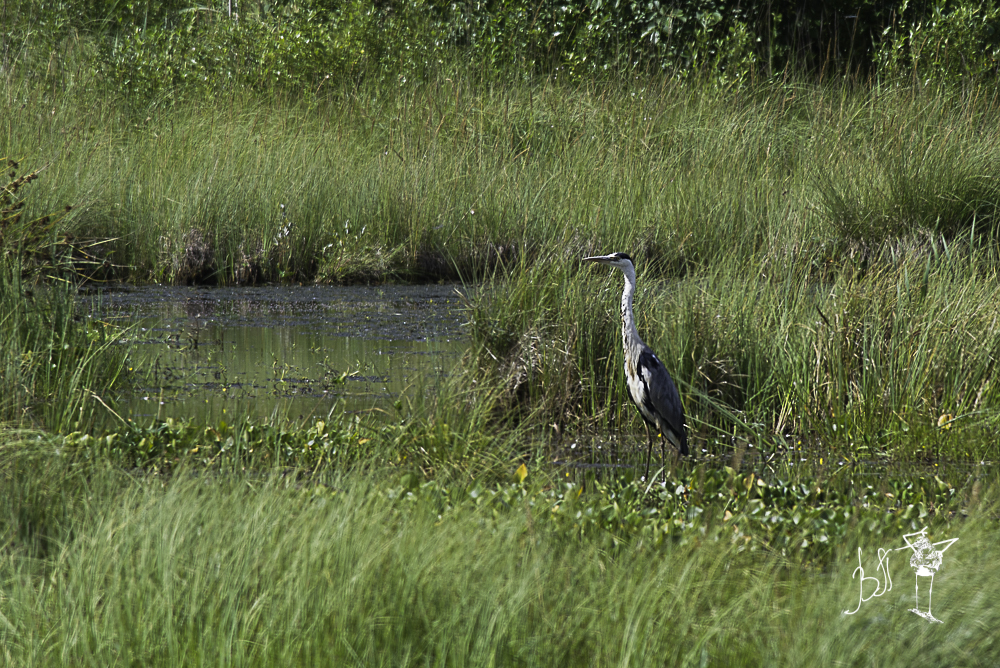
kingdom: Animalia
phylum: Chordata
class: Aves
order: Pelecaniformes
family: Ardeidae
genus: Ardea
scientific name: Ardea cinerea
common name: Grey heron
